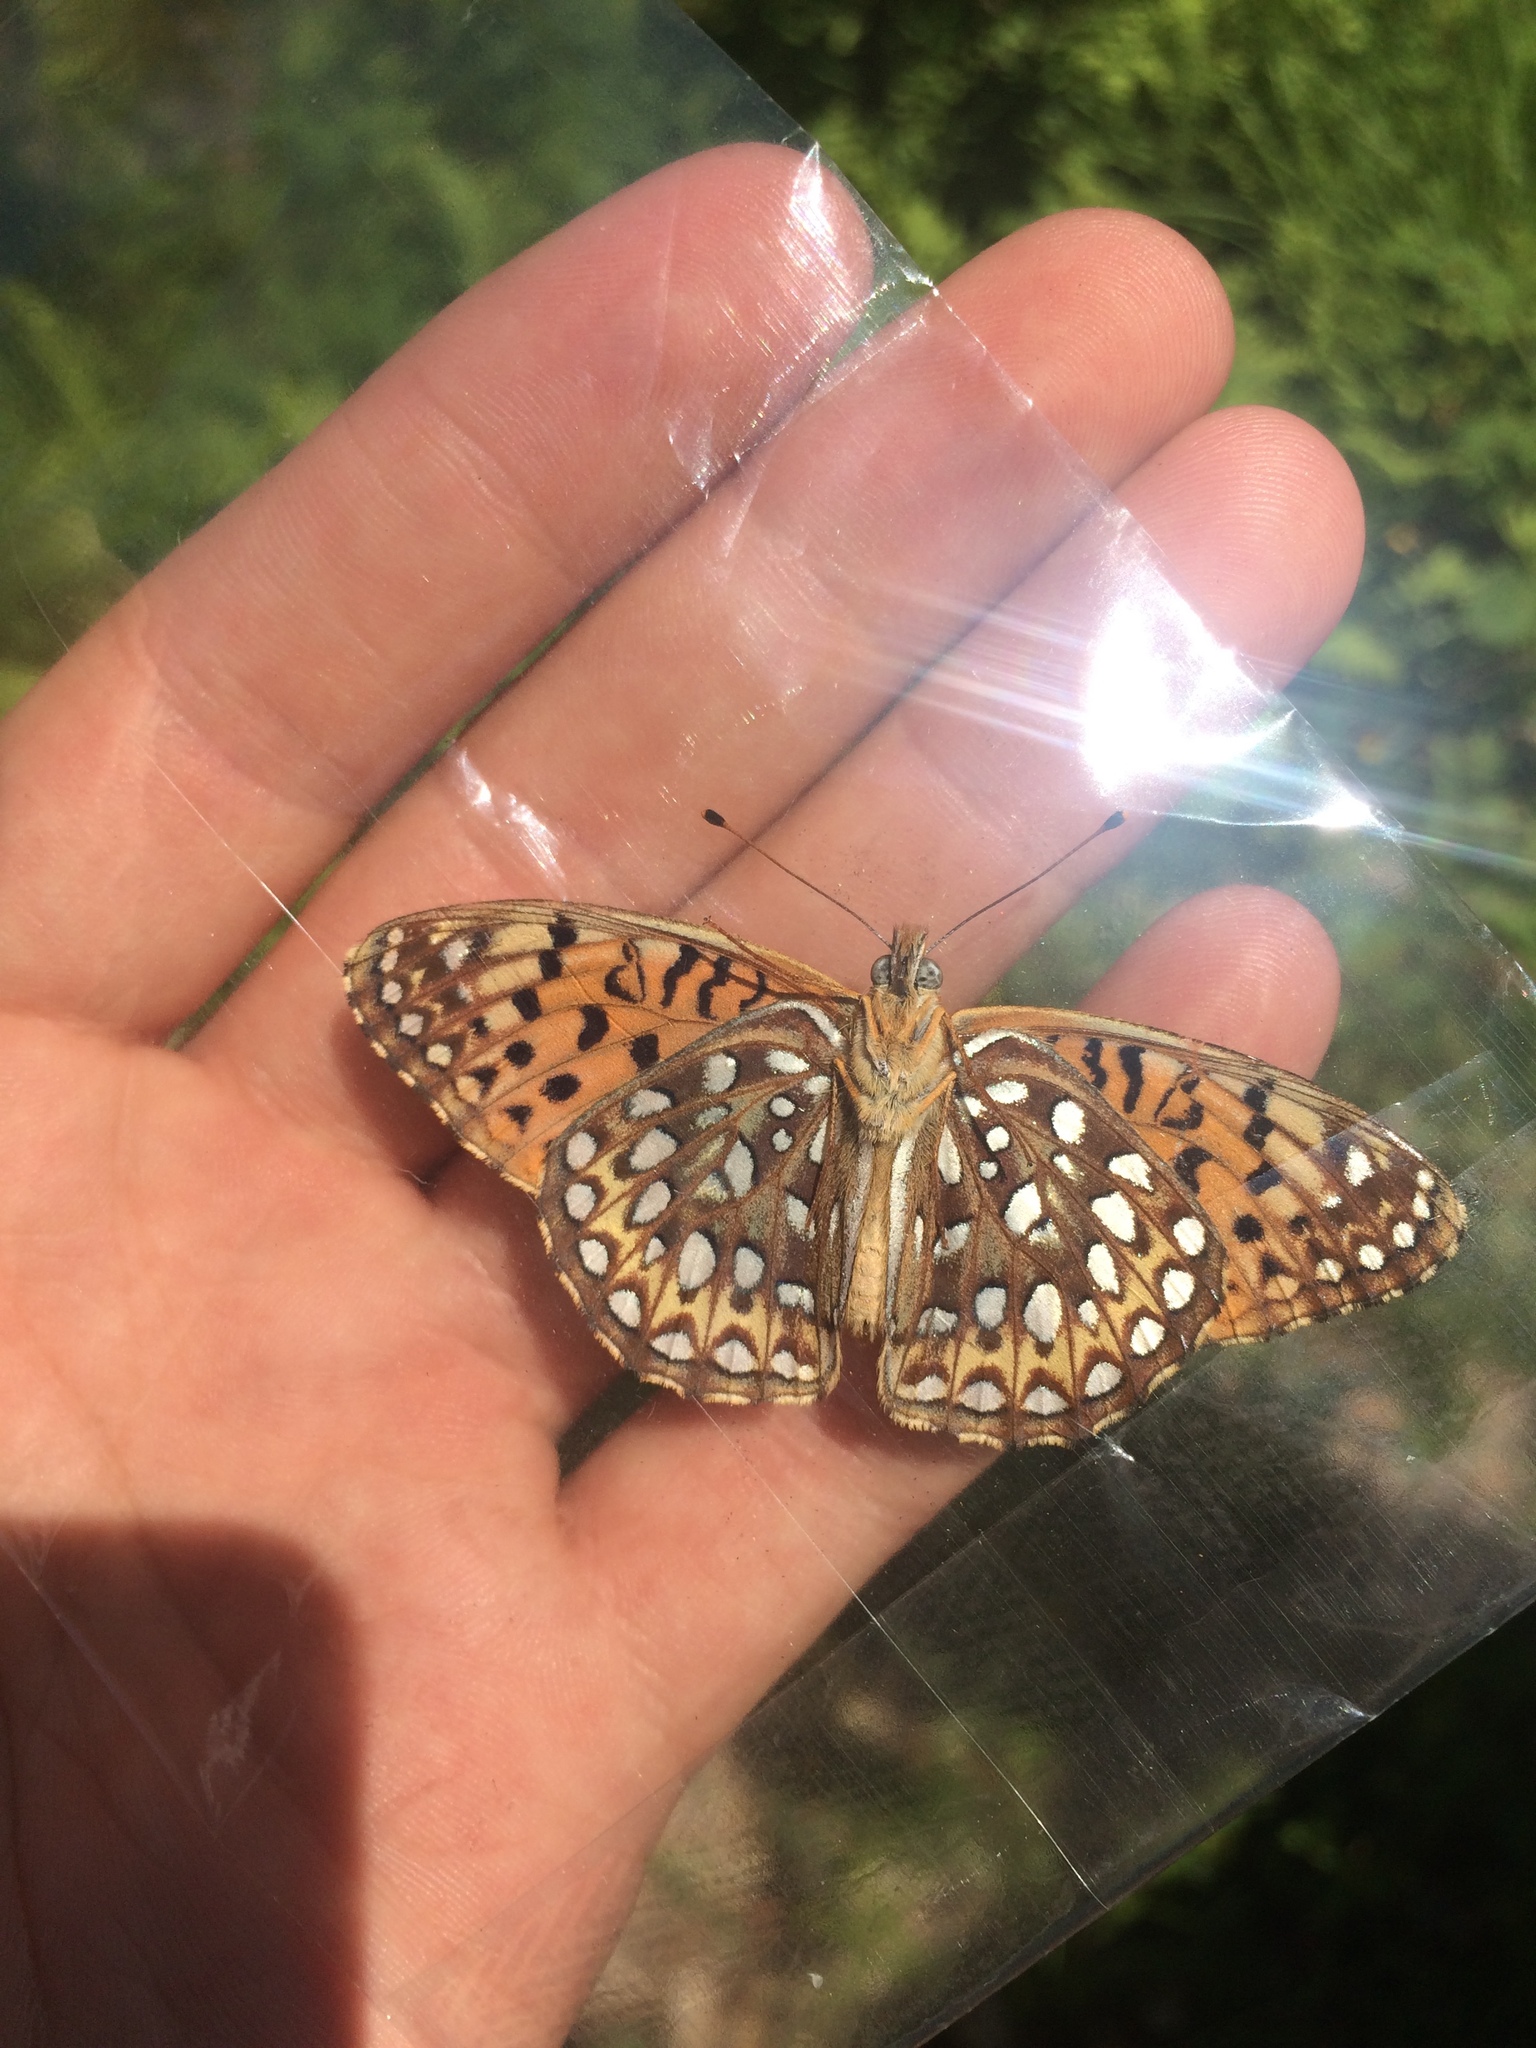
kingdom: Animalia
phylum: Arthropoda
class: Insecta
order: Lepidoptera
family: Nymphalidae
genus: Speyeria
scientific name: Speyeria atlantis
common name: Atlantis fritillary
